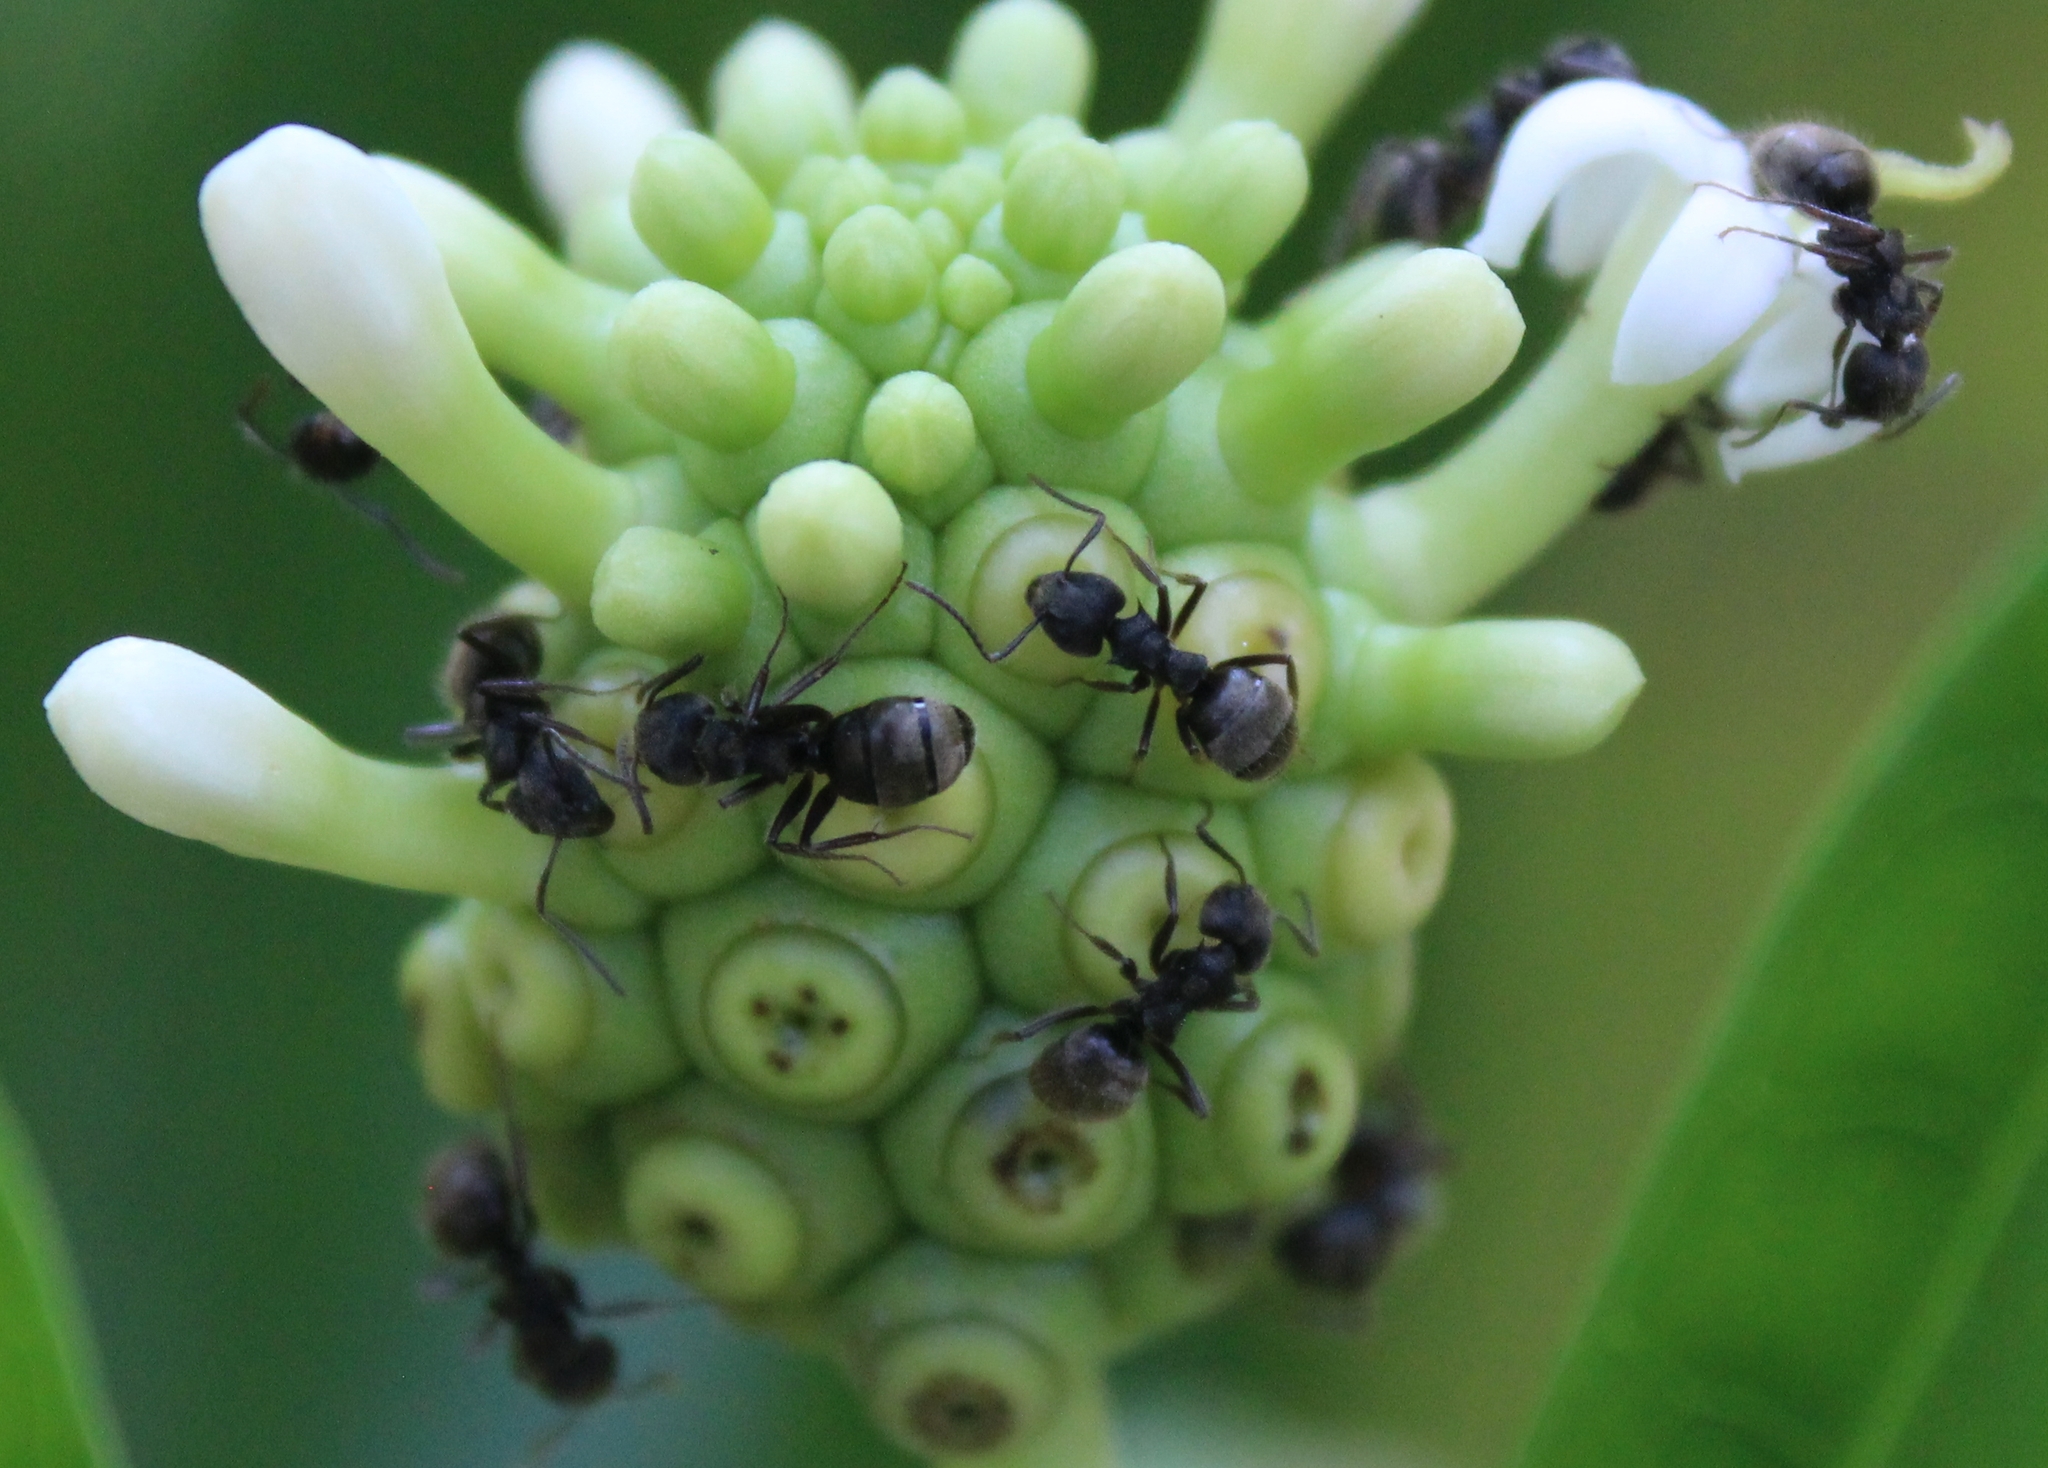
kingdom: Animalia
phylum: Arthropoda
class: Insecta
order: Hymenoptera
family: Formicidae
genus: Dolichoderus
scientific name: Dolichoderus bispinosus
